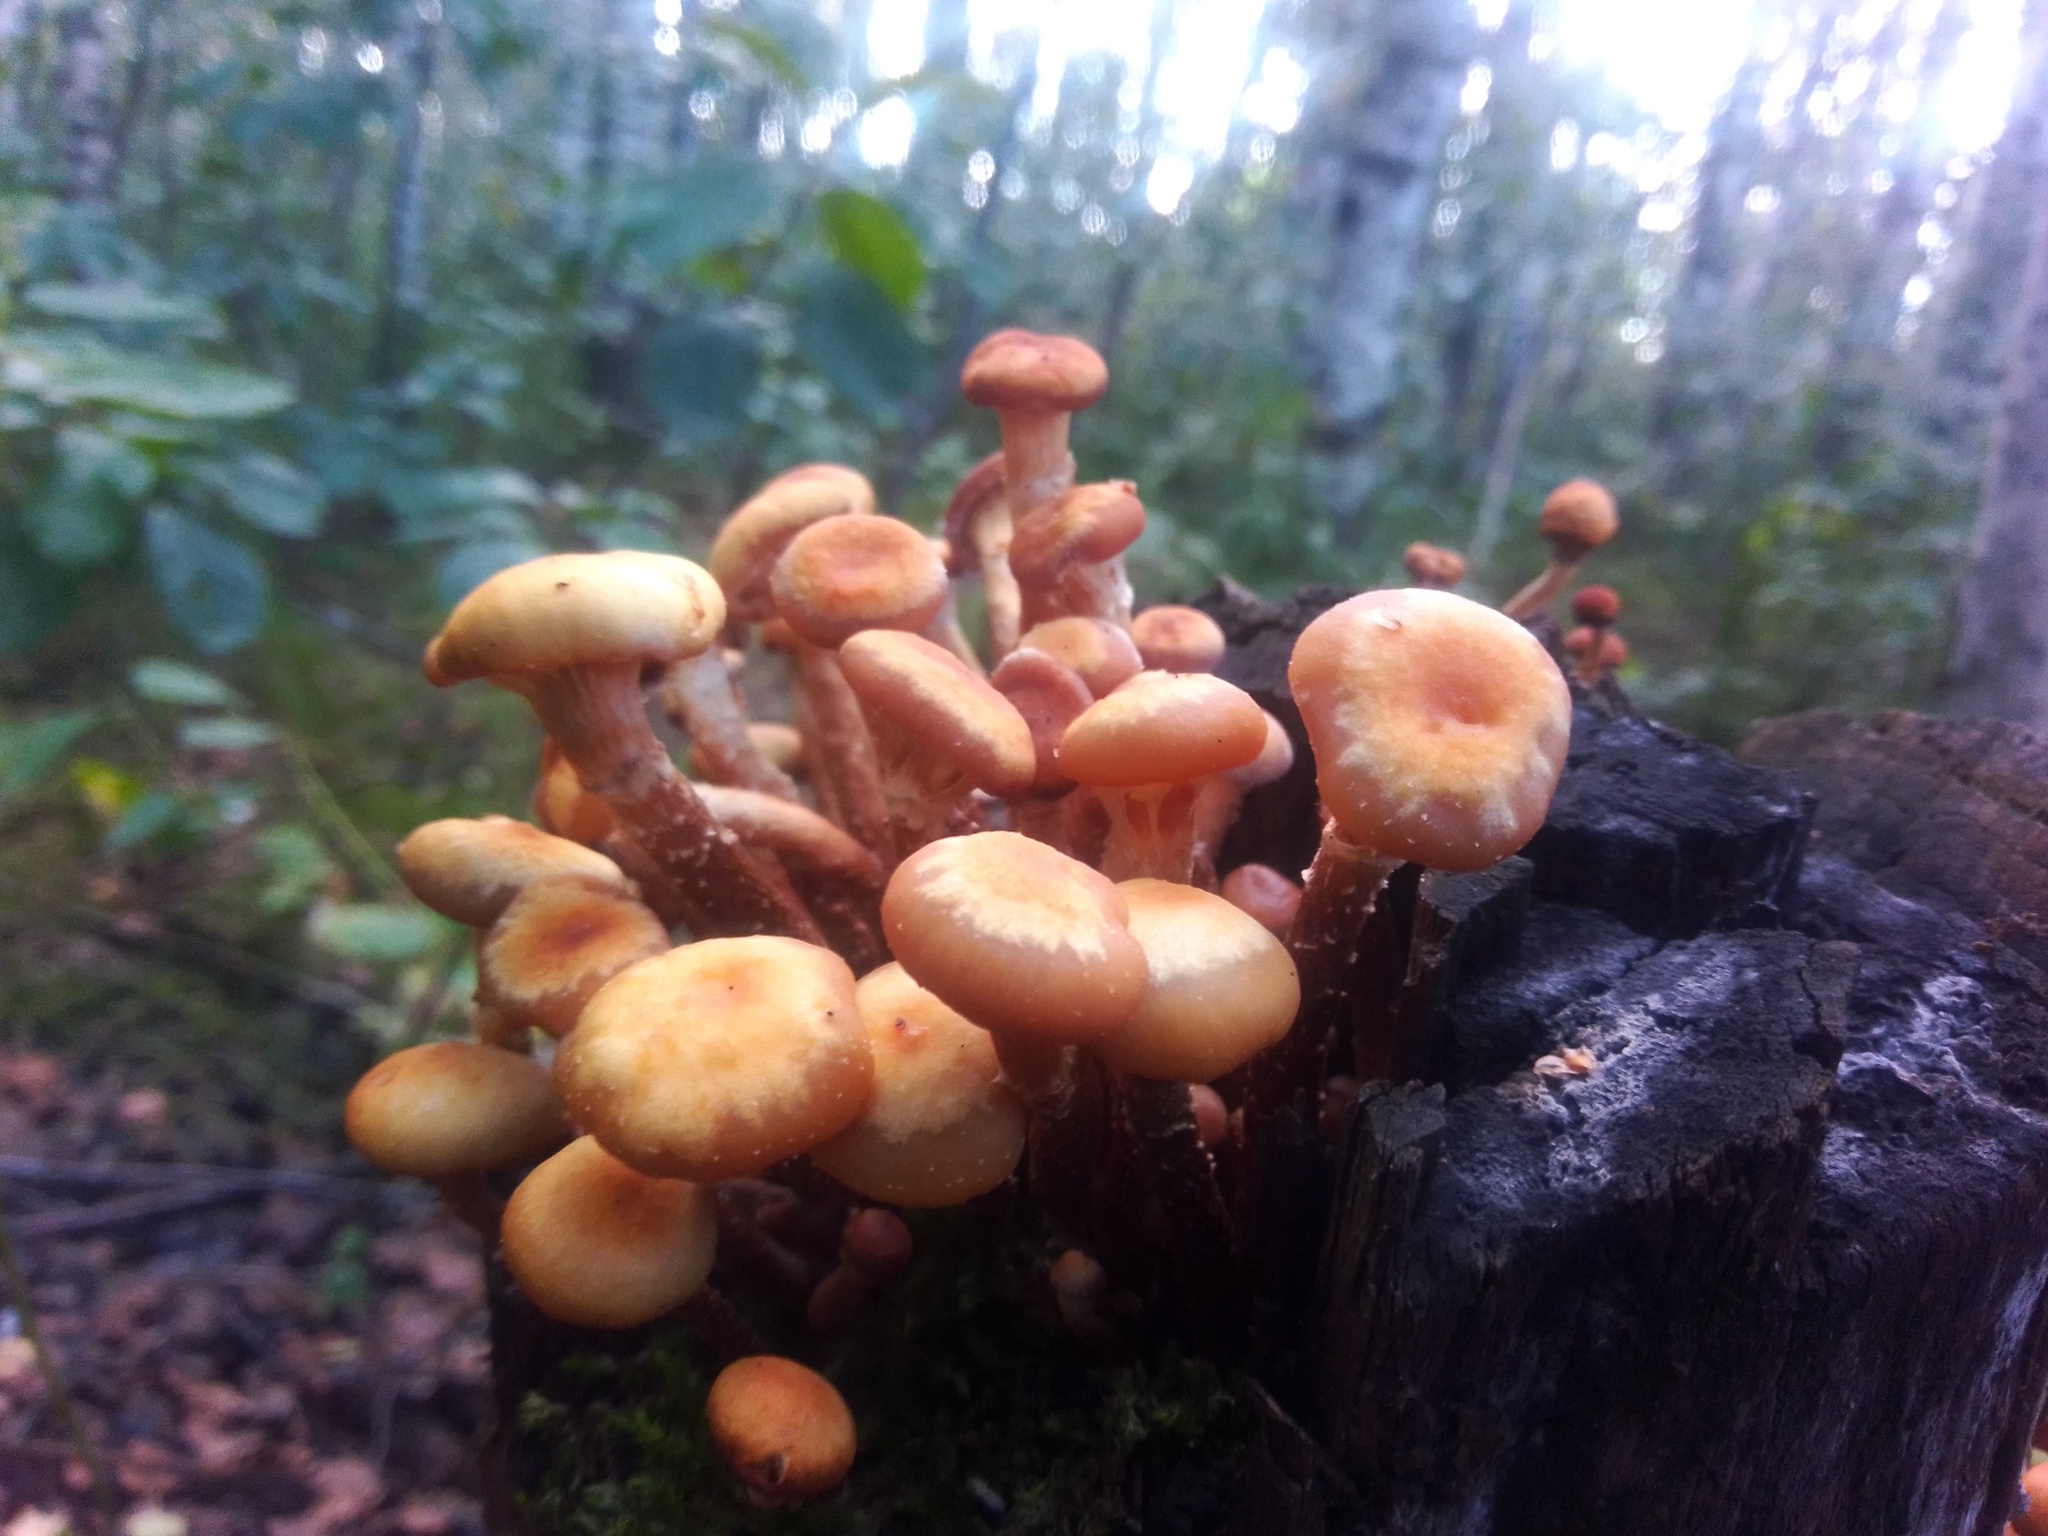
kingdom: Fungi
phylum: Basidiomycota
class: Agaricomycetes
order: Agaricales
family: Strophariaceae
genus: Kuehneromyces
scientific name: Kuehneromyces mutabilis
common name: Sheathed woodtuft
